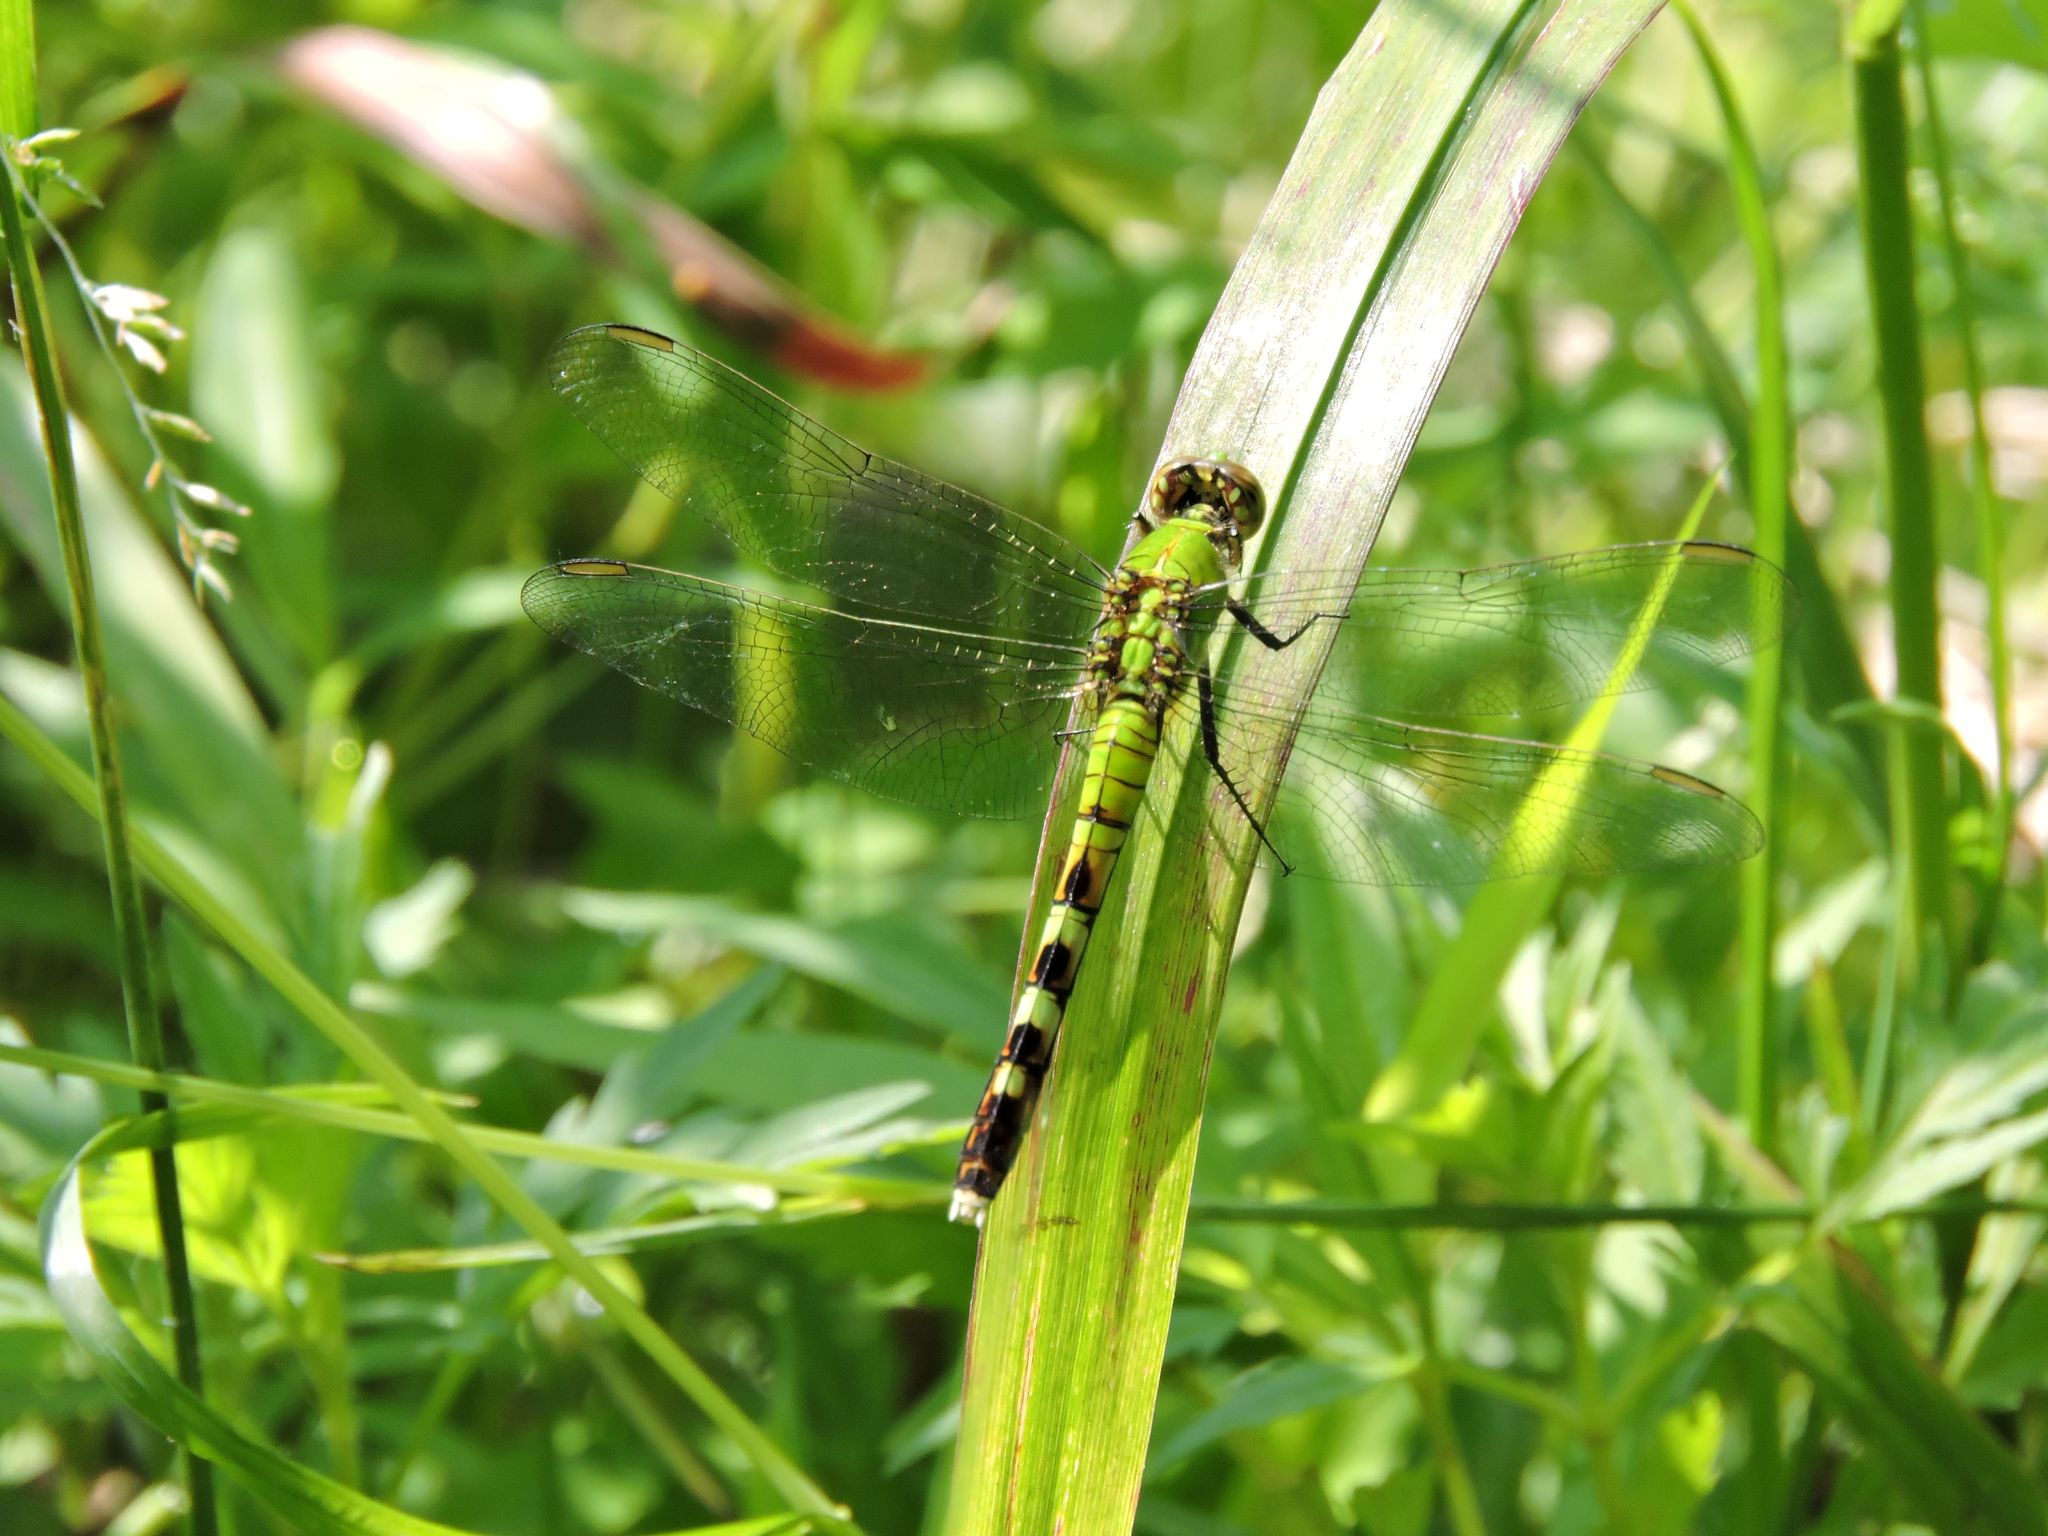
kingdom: Animalia
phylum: Arthropoda
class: Insecta
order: Odonata
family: Libellulidae
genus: Erythemis
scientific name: Erythemis simplicicollis
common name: Eastern pondhawk
